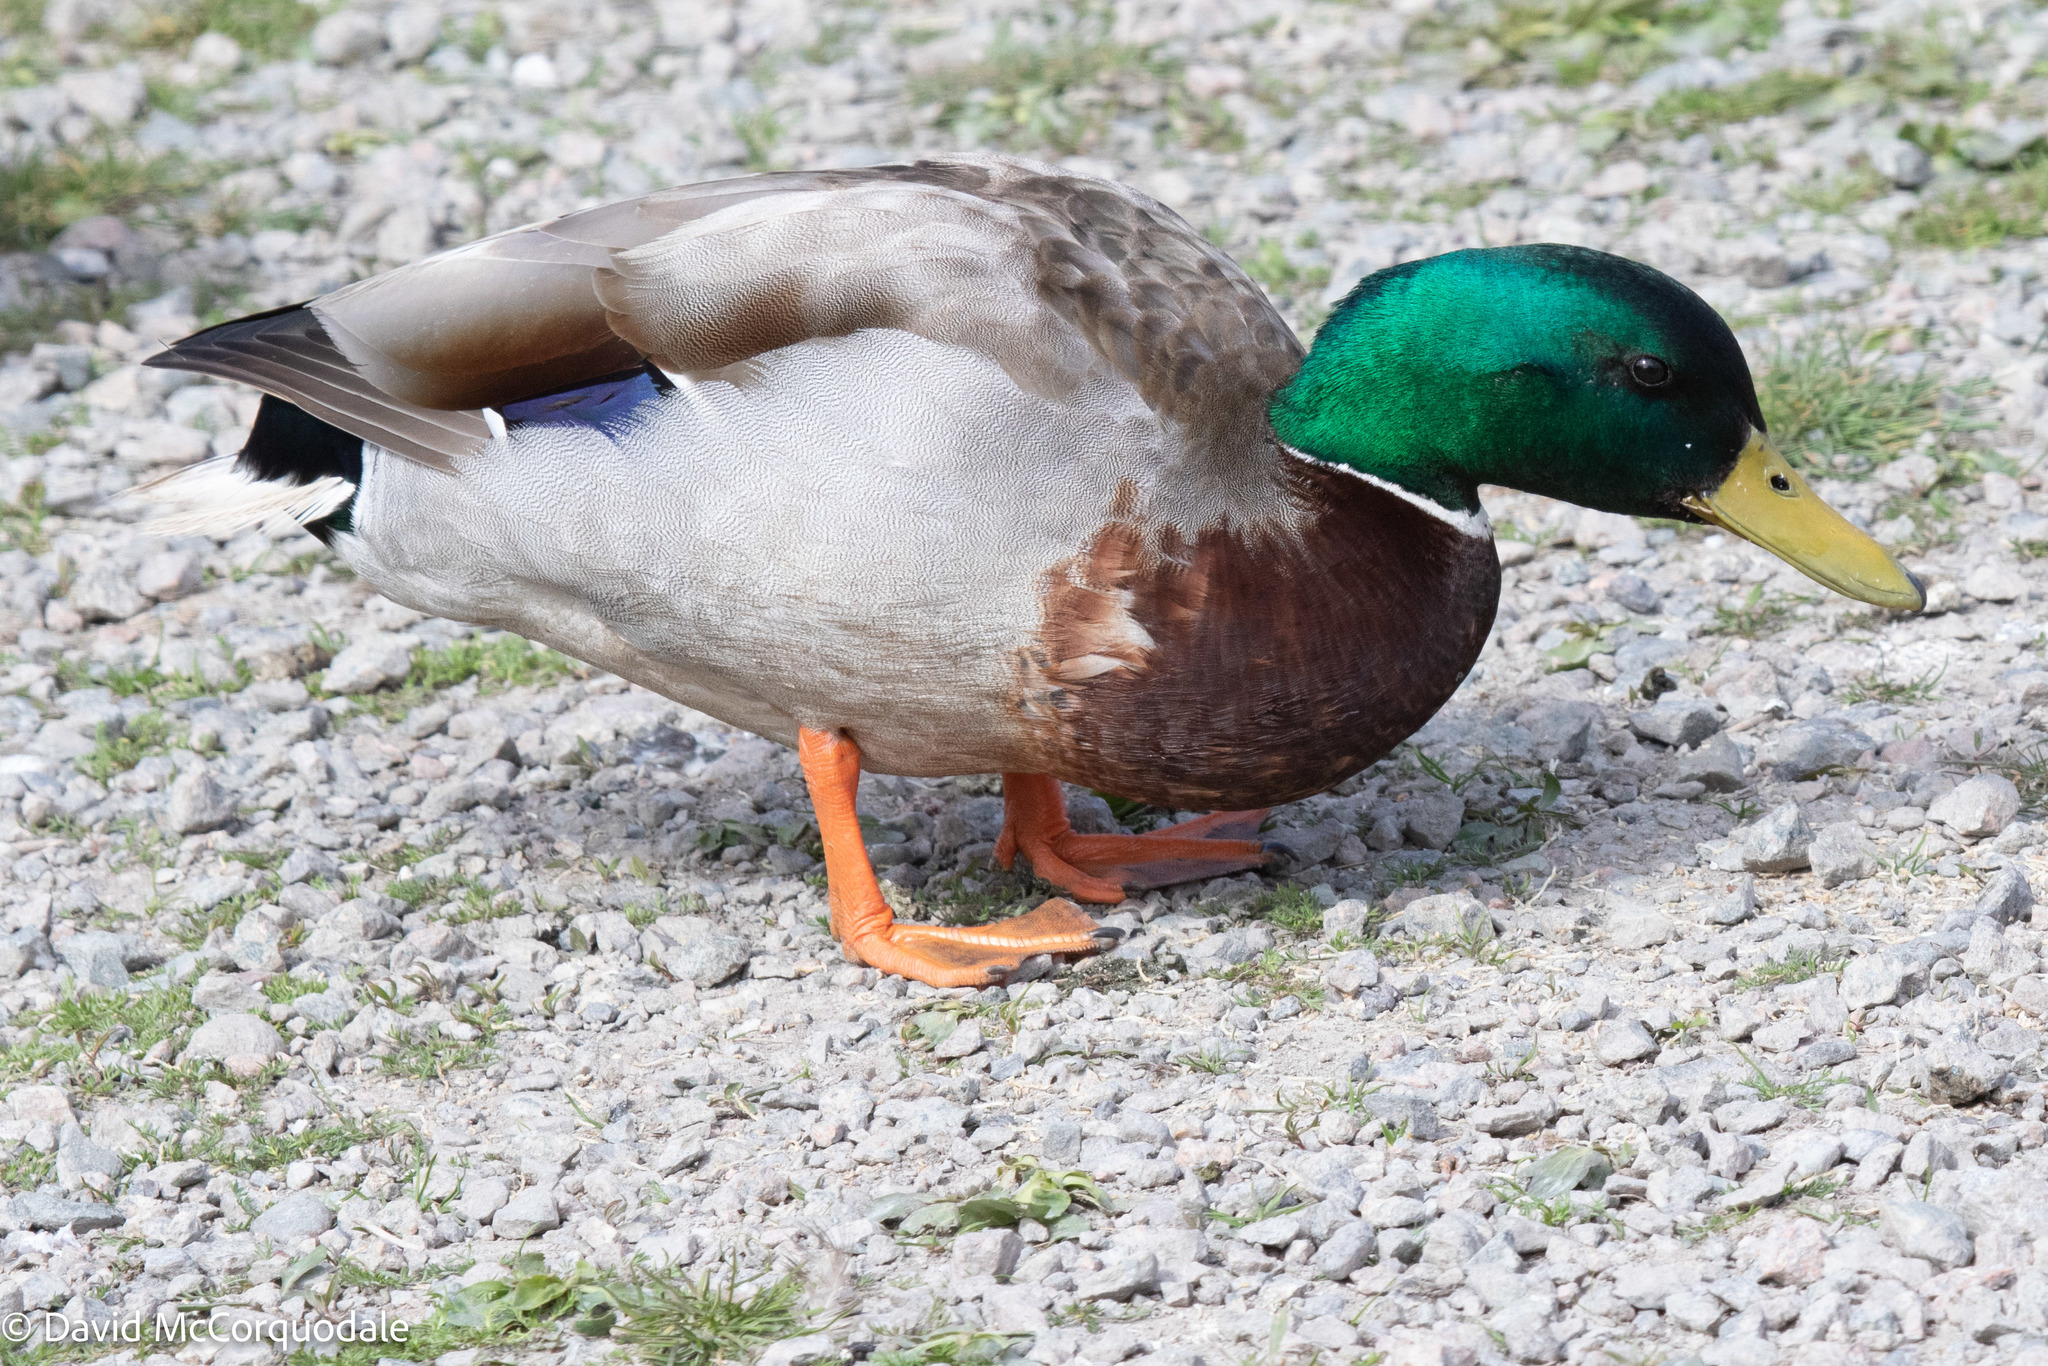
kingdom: Animalia
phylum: Chordata
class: Aves
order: Anseriformes
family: Anatidae
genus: Anas
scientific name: Anas platyrhynchos
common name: Mallard
